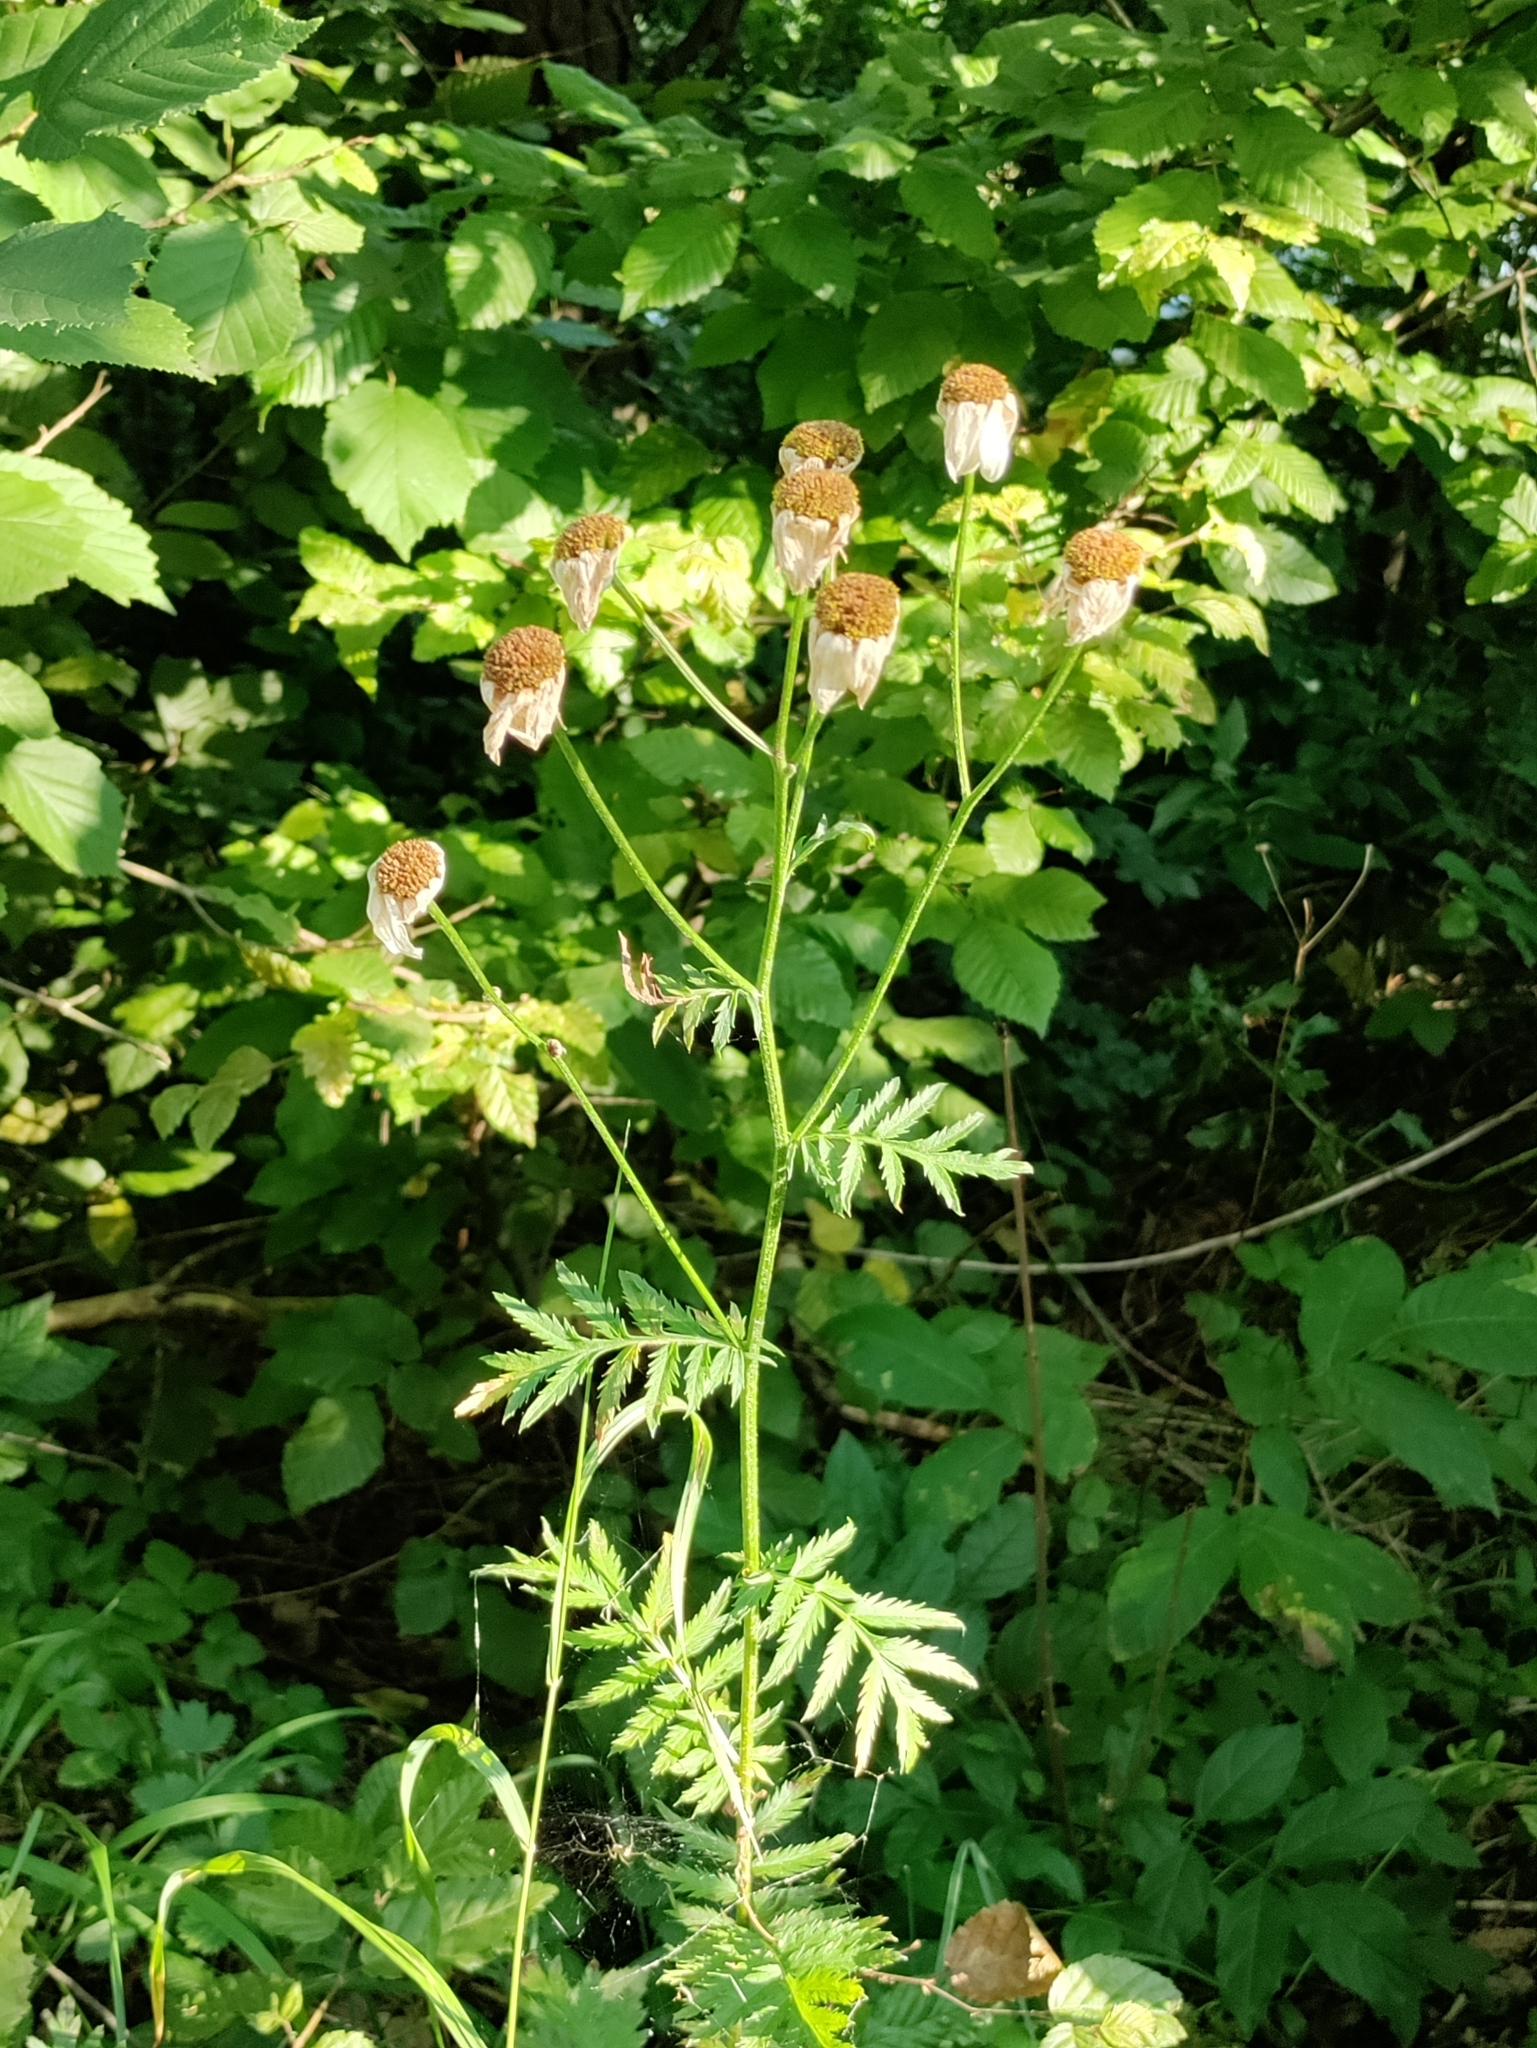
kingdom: Plantae
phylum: Tracheophyta
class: Magnoliopsida
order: Asterales
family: Asteraceae
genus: Tanacetum
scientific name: Tanacetum corymbosum
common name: Scentless feverfew
